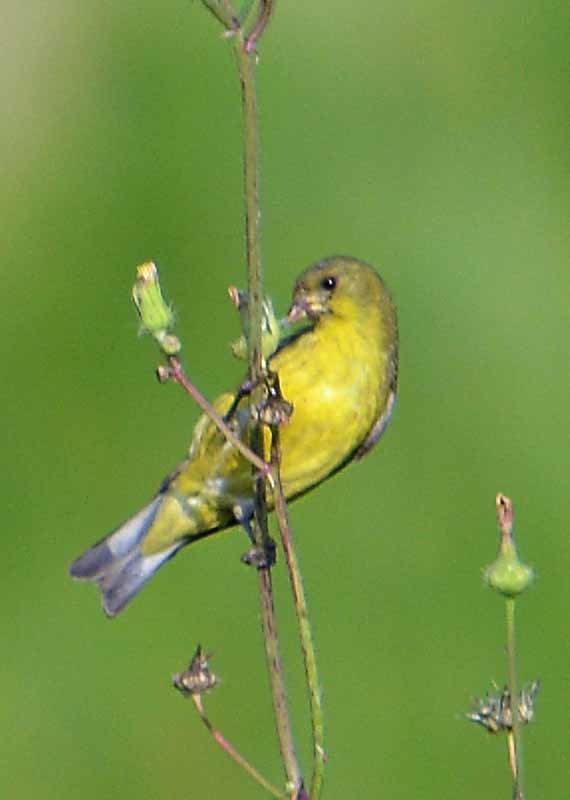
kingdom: Animalia
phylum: Chordata
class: Aves
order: Passeriformes
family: Fringillidae
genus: Spinus
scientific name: Spinus psaltria
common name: Lesser goldfinch
